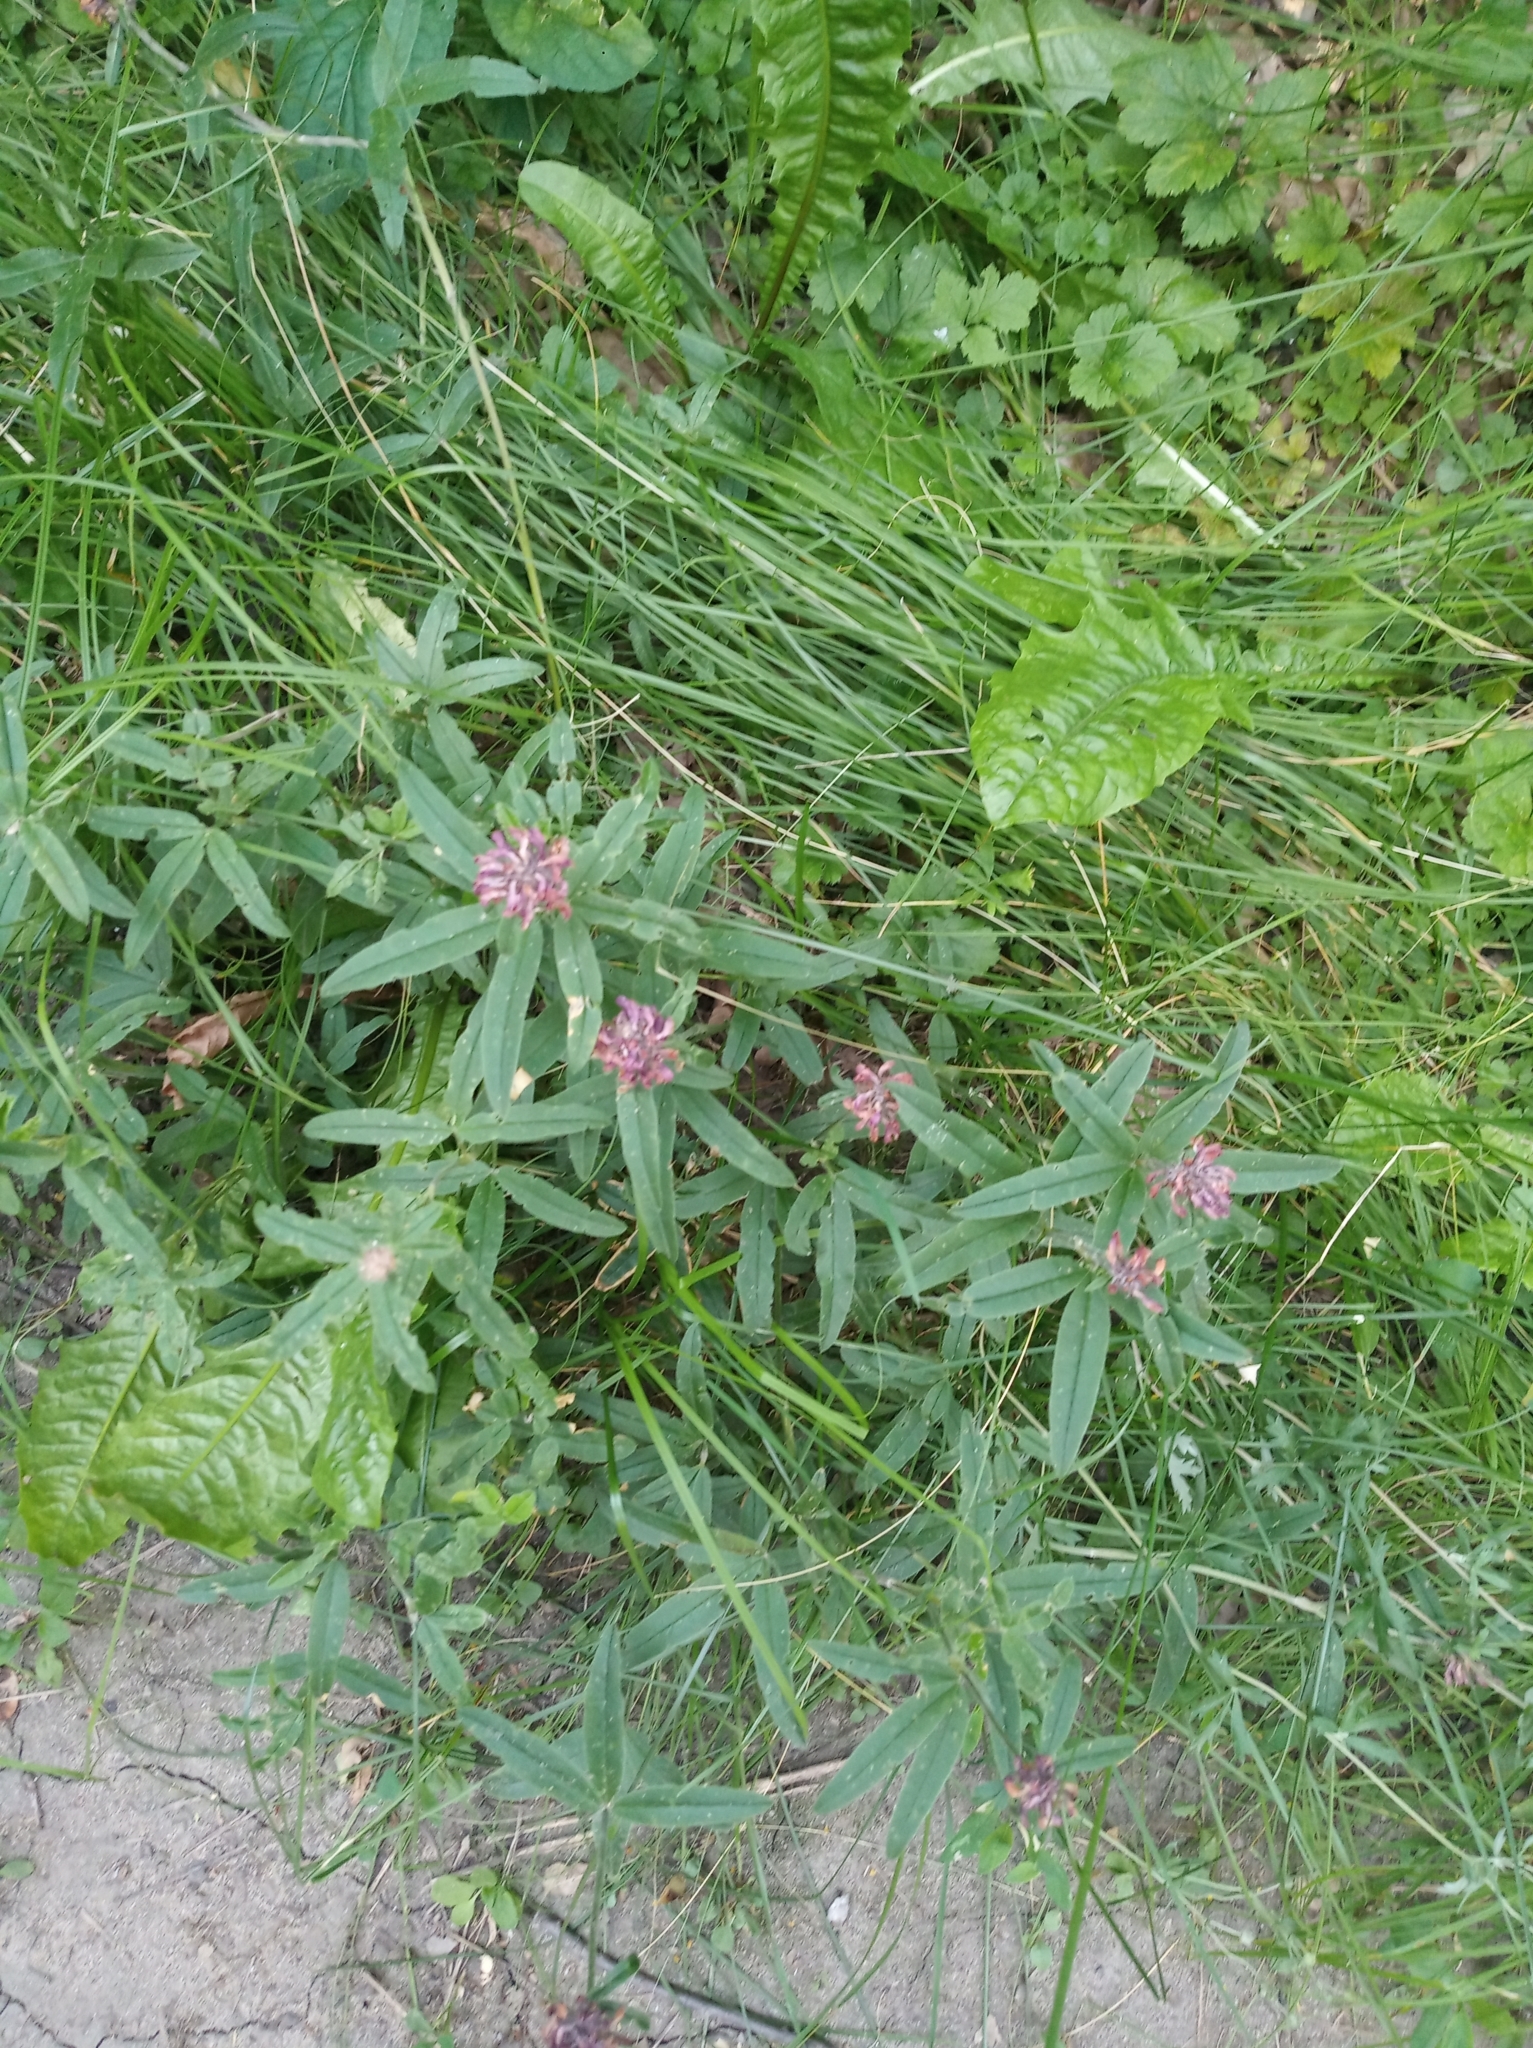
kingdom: Plantae
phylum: Tracheophyta
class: Magnoliopsida
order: Fabales
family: Fabaceae
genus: Trifolium
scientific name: Trifolium alpestre
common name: Owl-head clover
